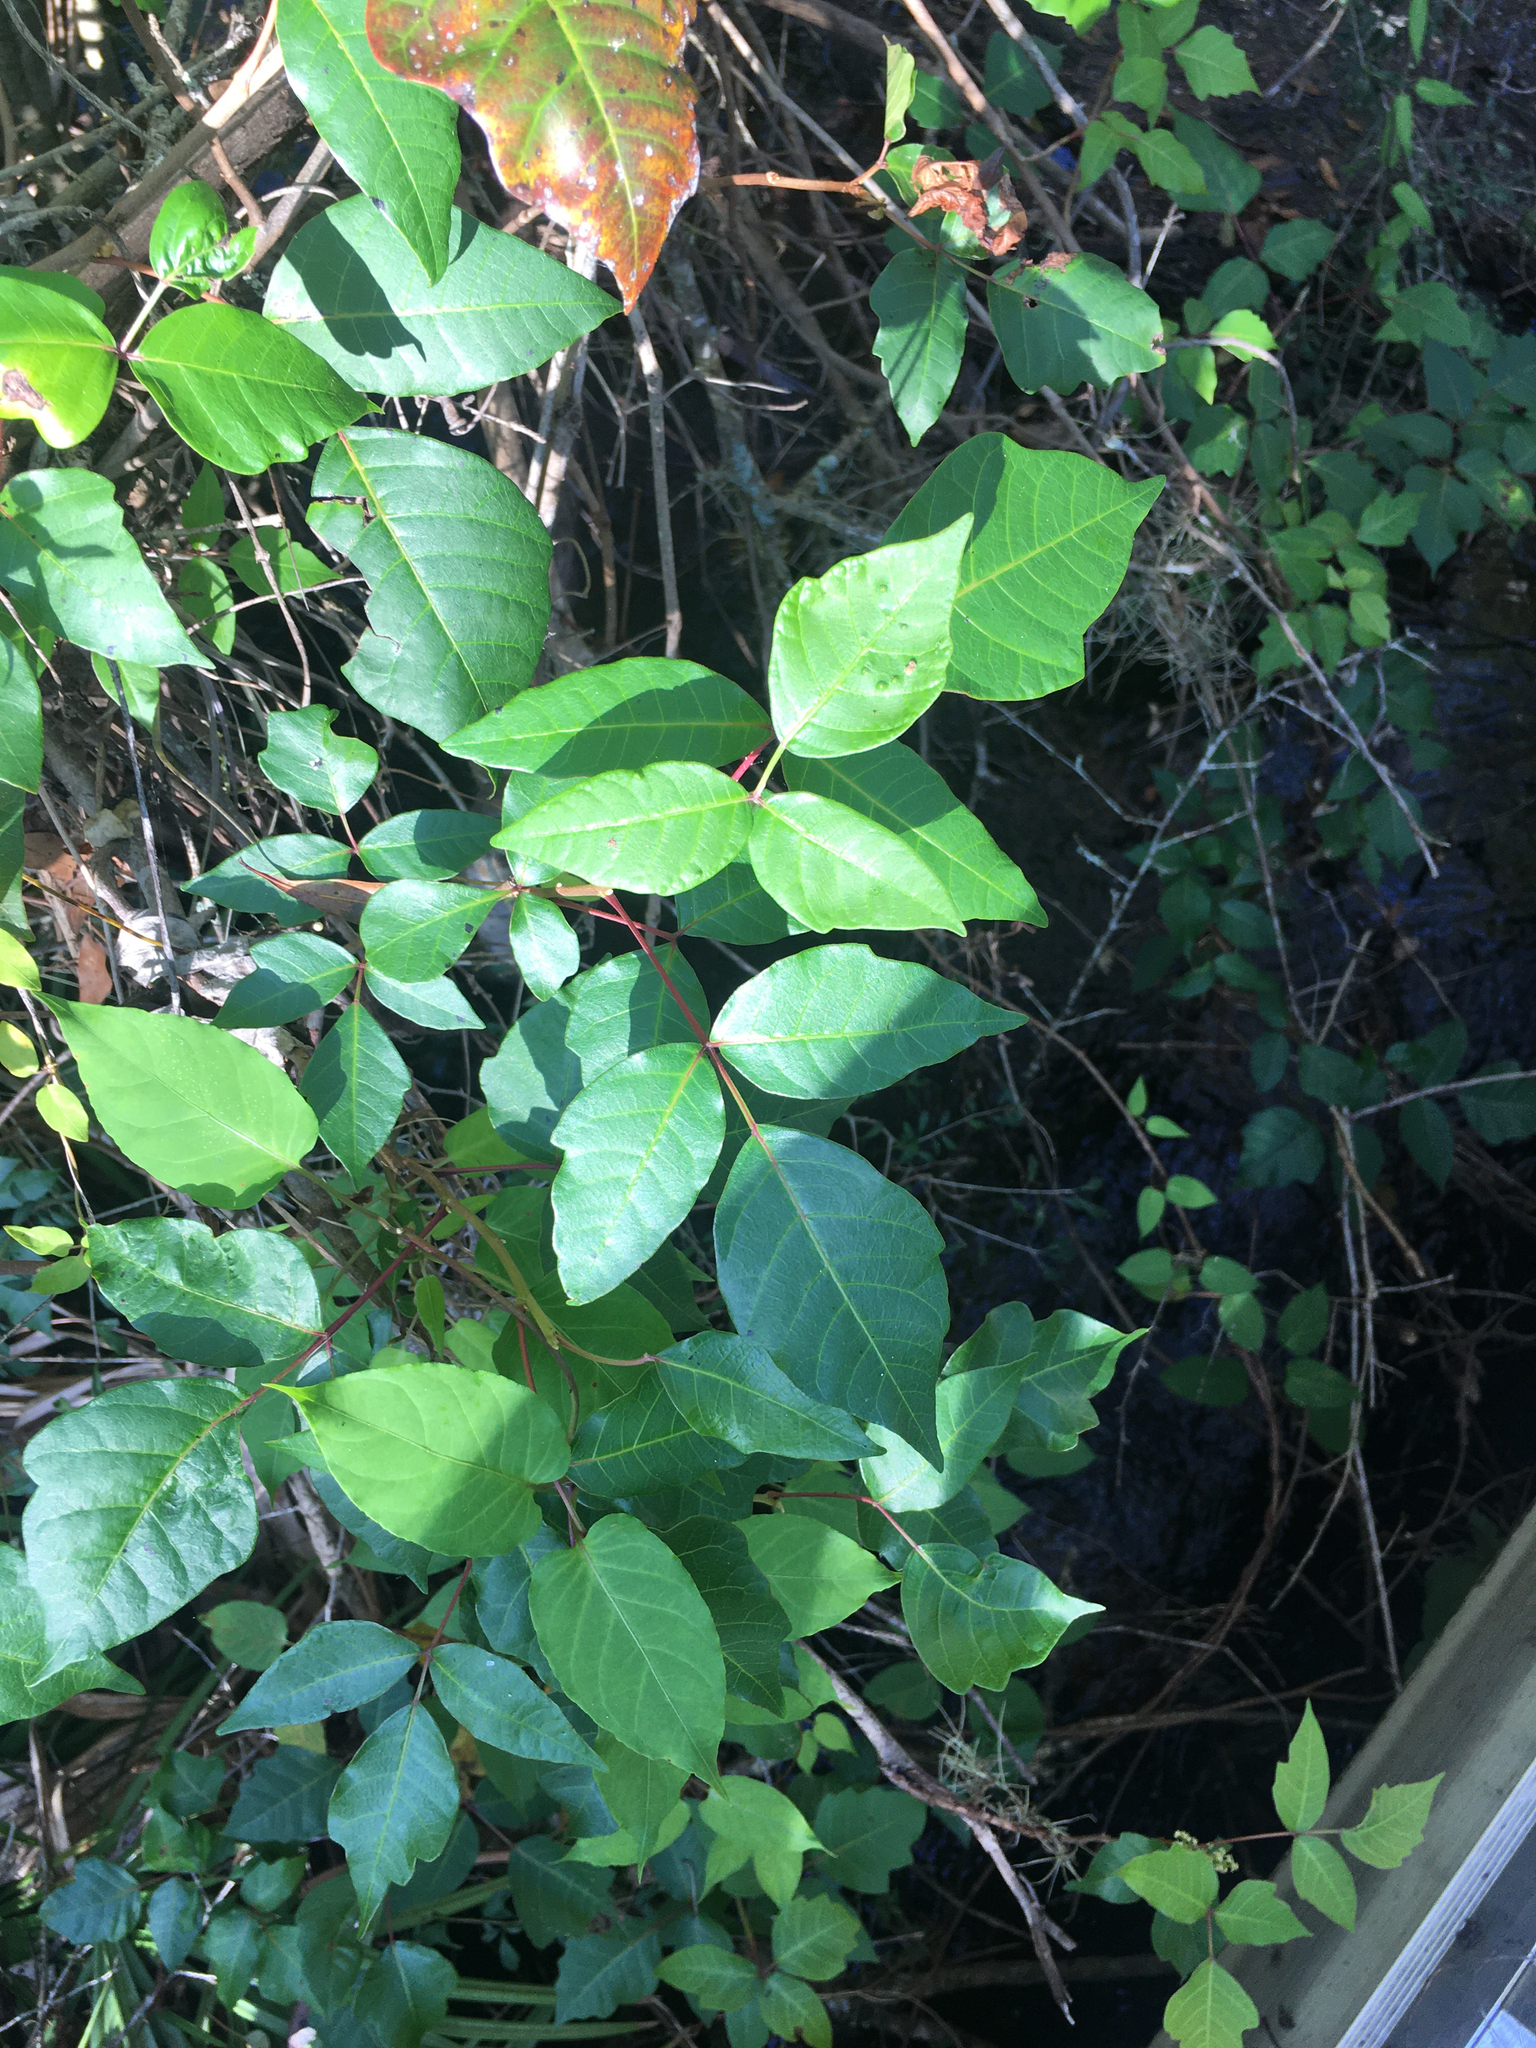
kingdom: Plantae
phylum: Tracheophyta
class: Magnoliopsida
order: Sapindales
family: Anacardiaceae
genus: Toxicodendron
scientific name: Toxicodendron radicans
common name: Poison ivy
